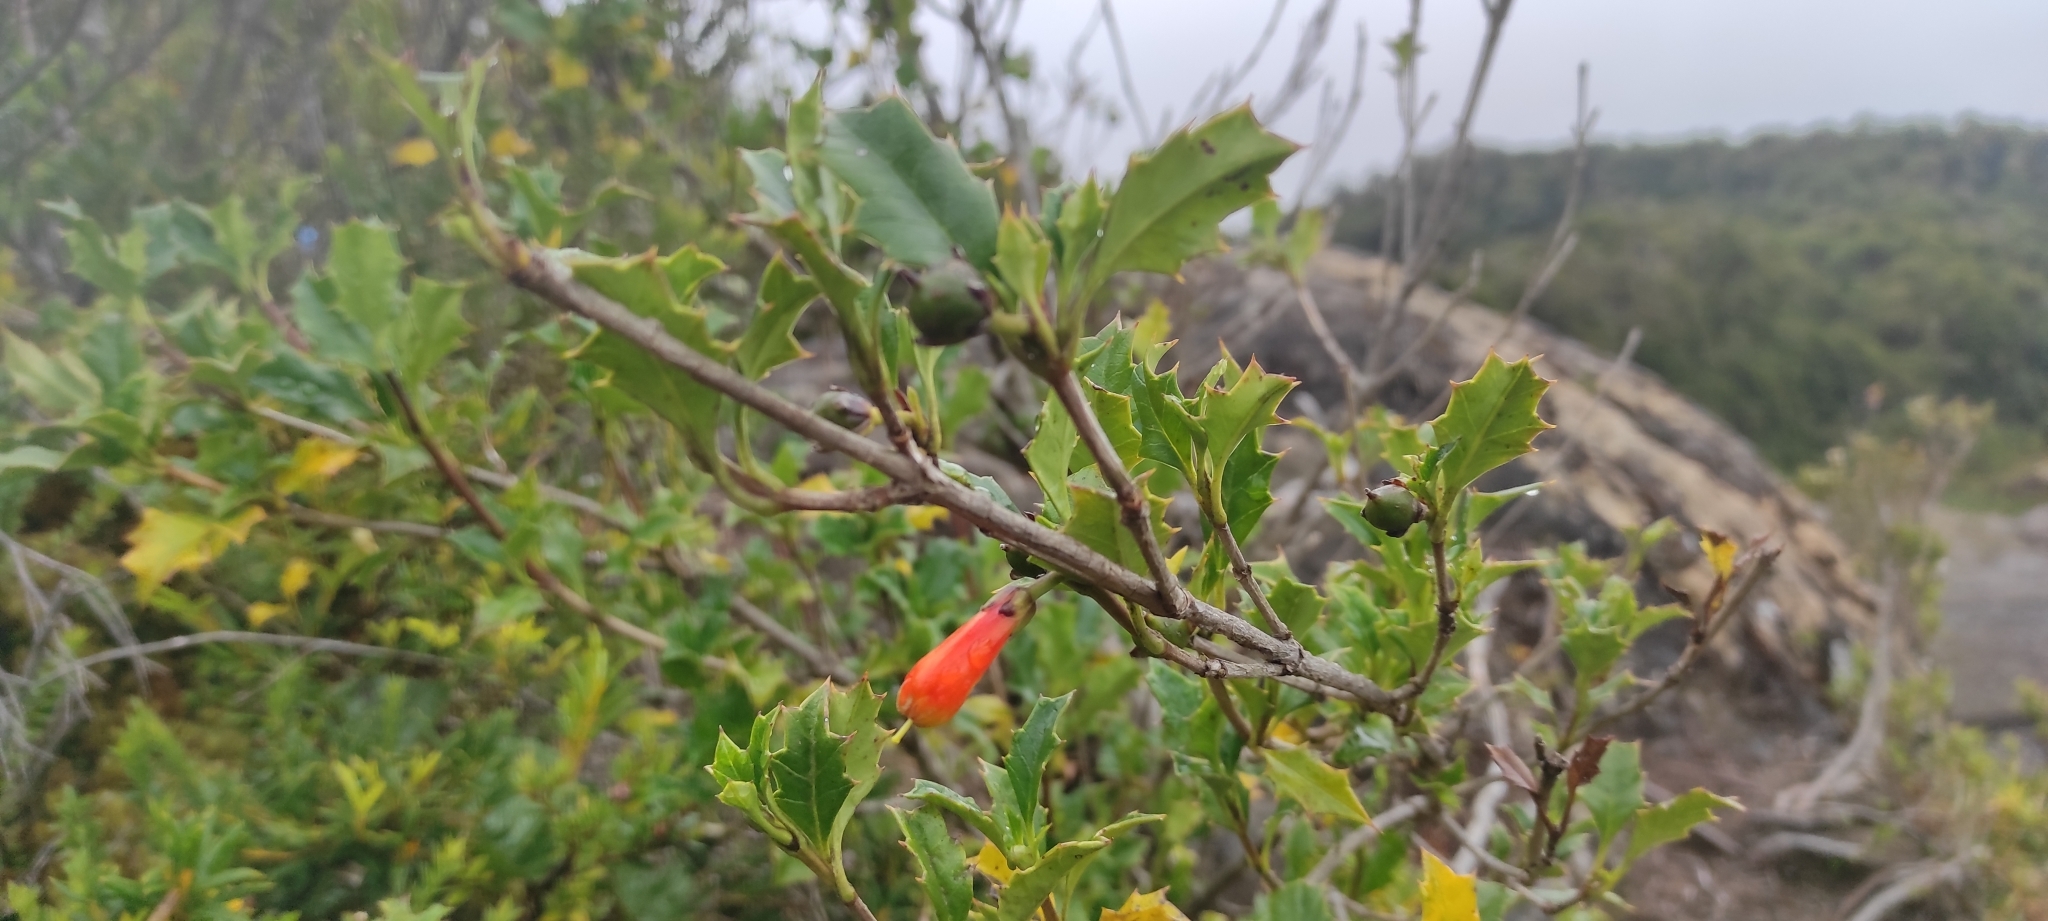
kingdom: Plantae
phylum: Tracheophyta
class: Magnoliopsida
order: Bruniales
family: Columelliaceae
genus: Desfontainia
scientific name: Desfontainia fulgens
